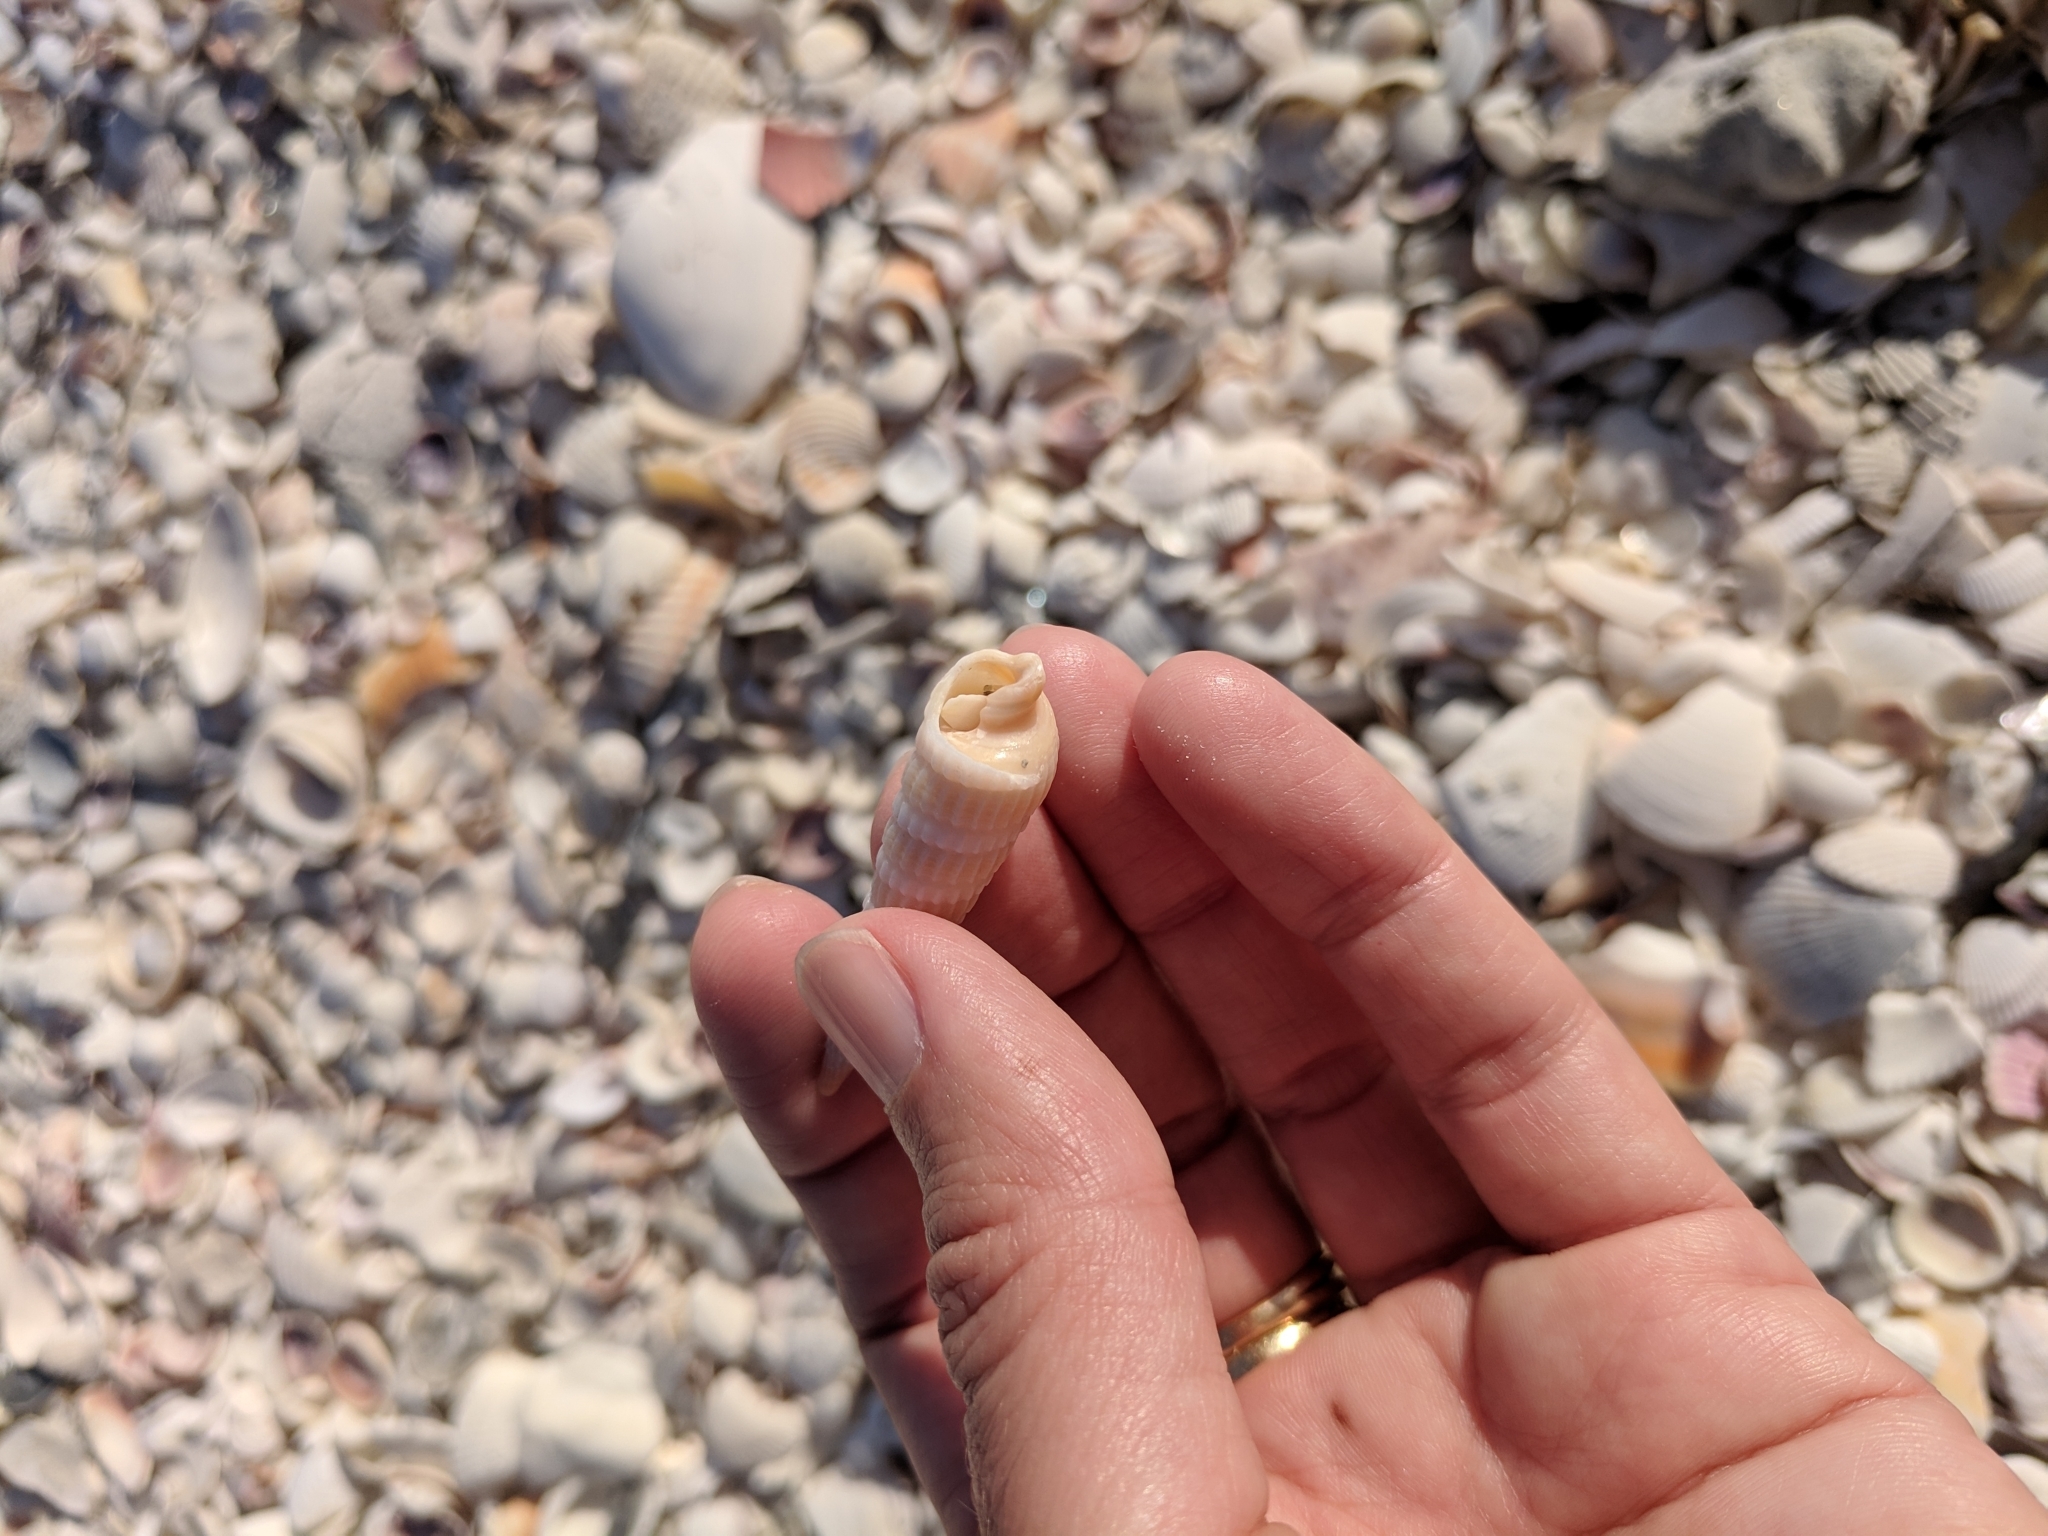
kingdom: Animalia
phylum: Mollusca
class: Gastropoda
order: Neogastropoda
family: Terebridae
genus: Neoterebra
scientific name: Neoterebra dislocata
